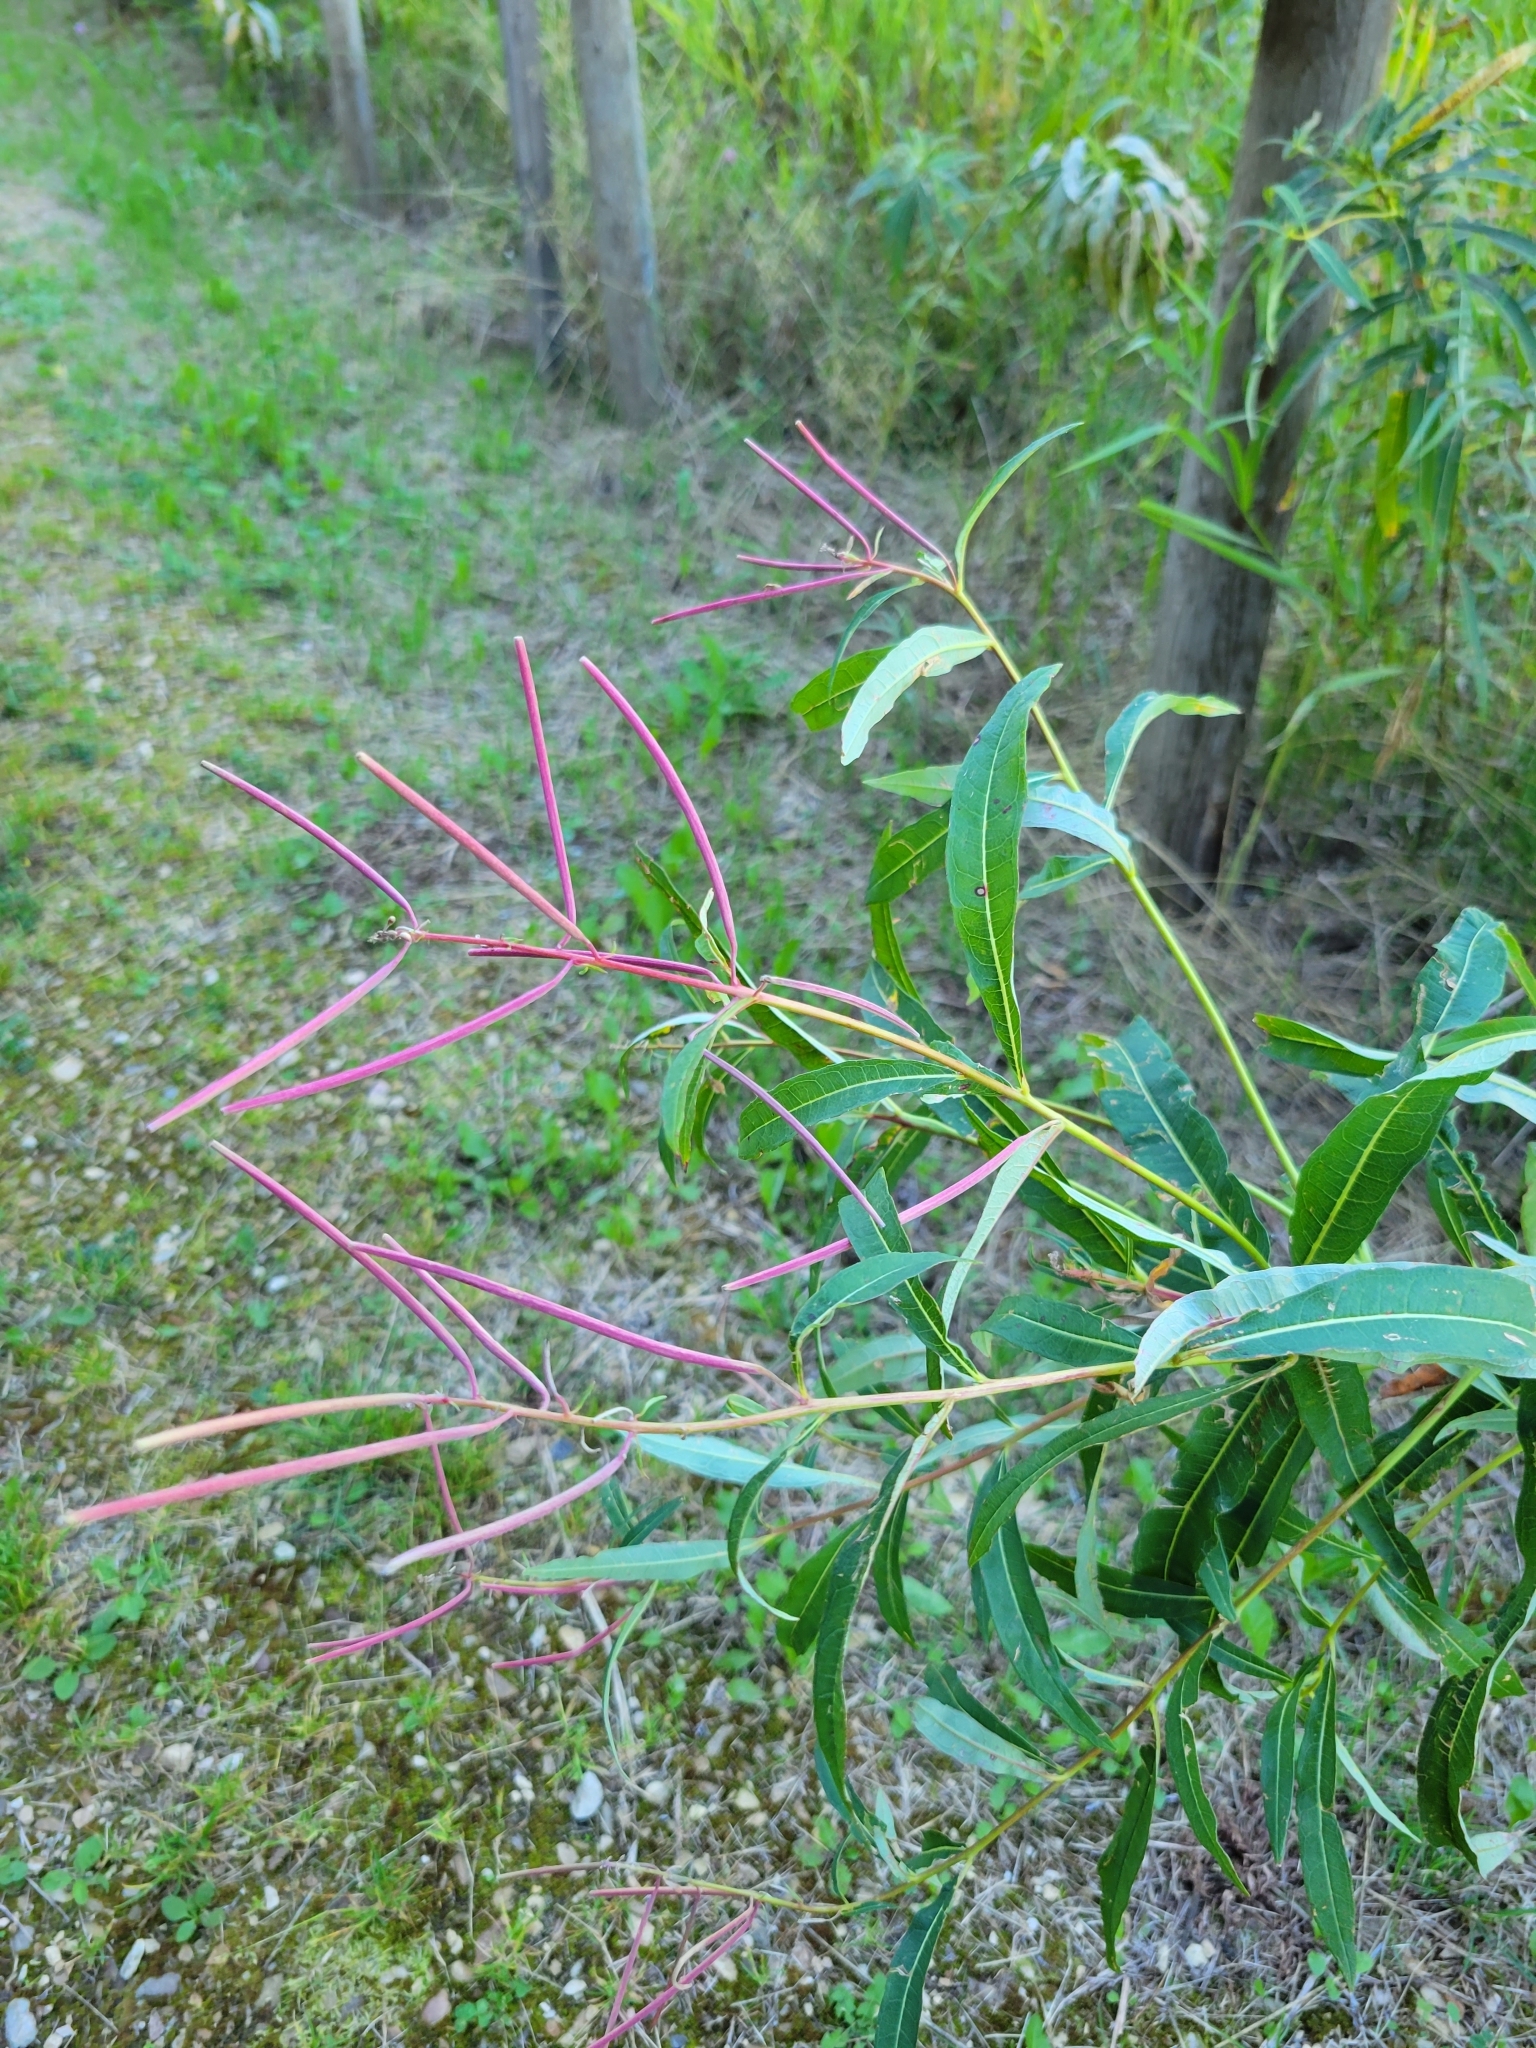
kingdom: Plantae
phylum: Tracheophyta
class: Magnoliopsida
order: Myrtales
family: Onagraceae
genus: Chamaenerion
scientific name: Chamaenerion angustifolium
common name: Fireweed
